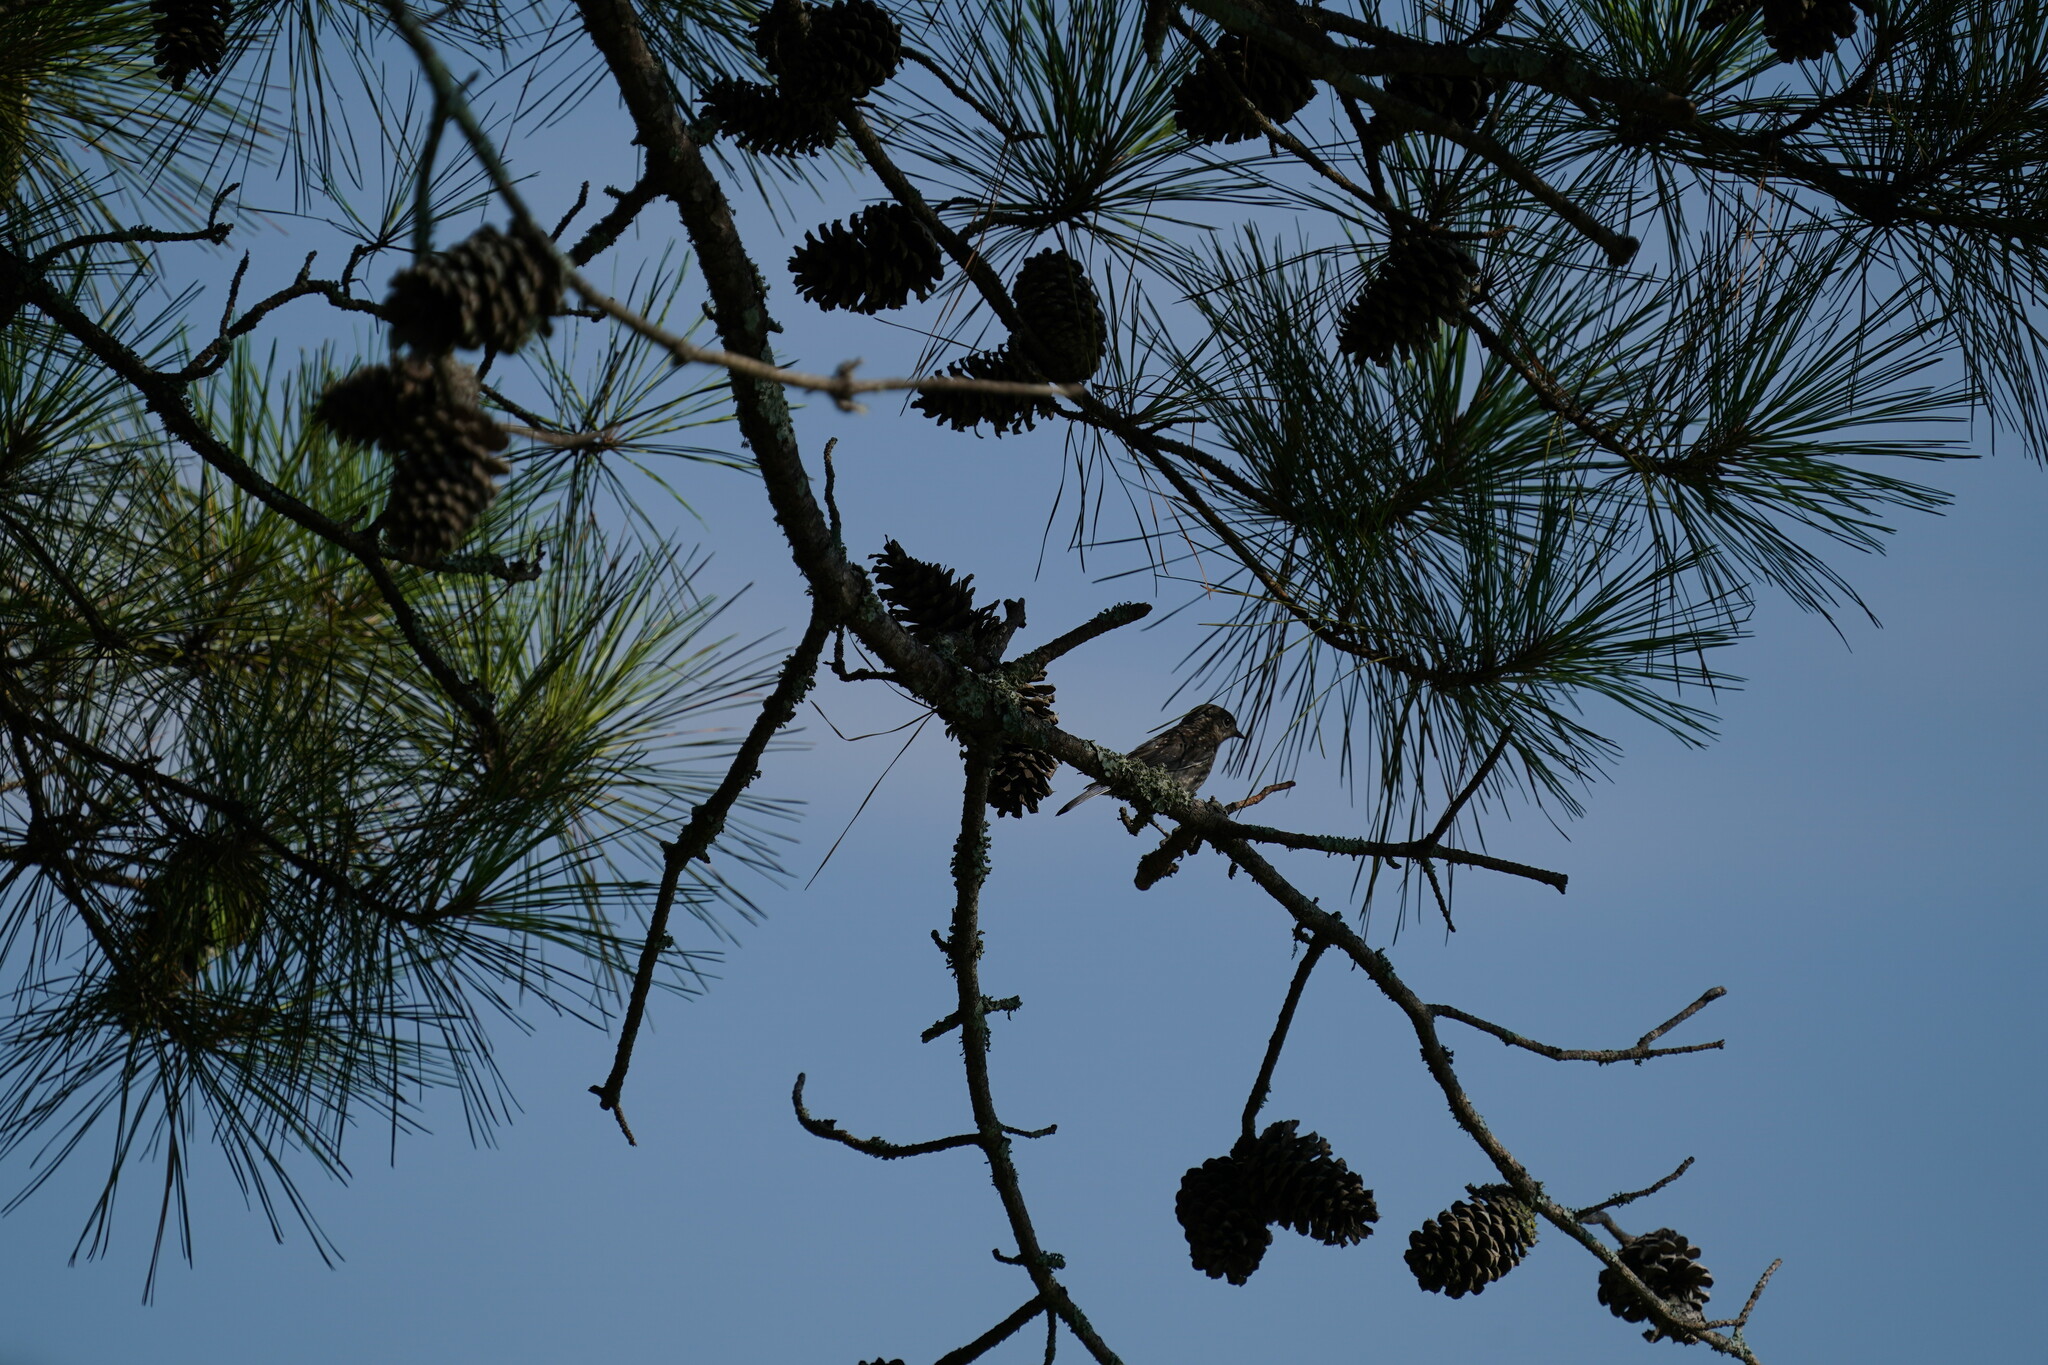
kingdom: Animalia
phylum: Chordata
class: Aves
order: Passeriformes
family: Turdidae
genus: Sialia
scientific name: Sialia sialis
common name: Eastern bluebird
